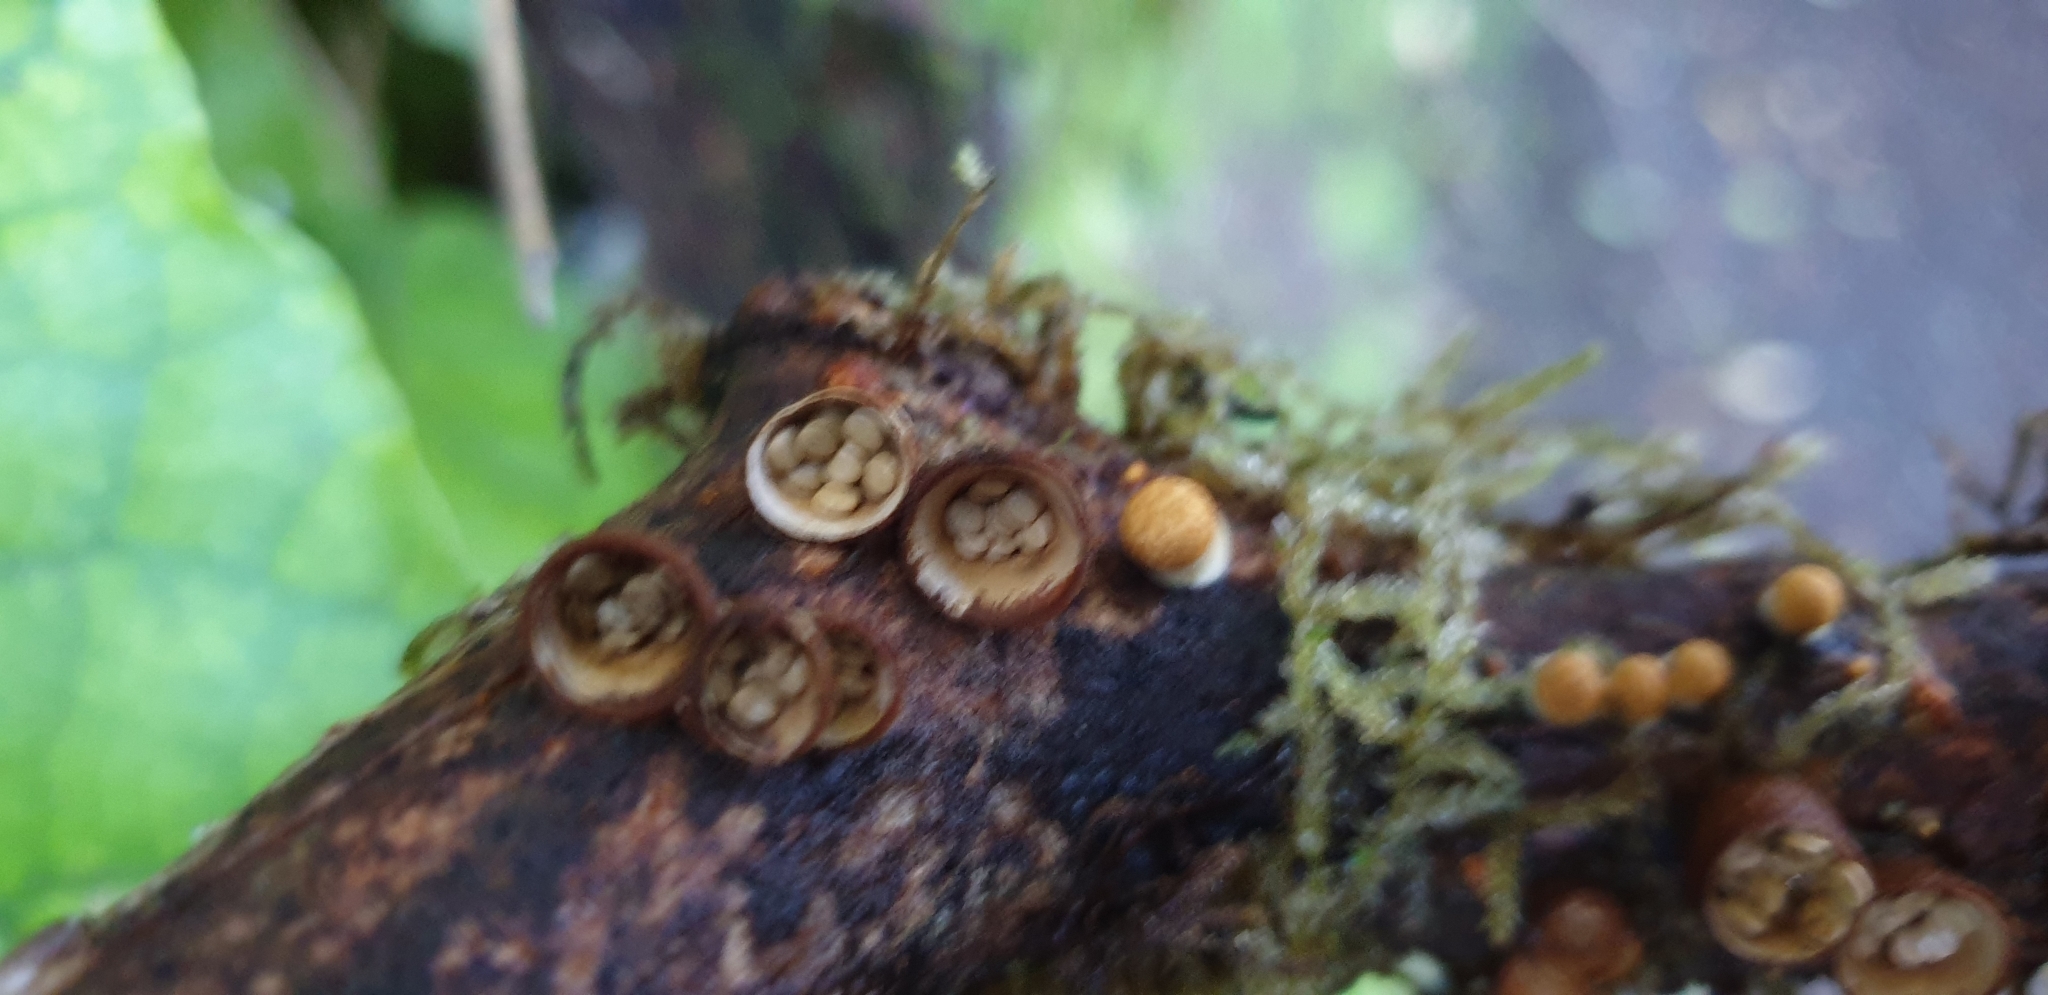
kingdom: Fungi
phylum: Basidiomycota
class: Agaricomycetes
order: Agaricales
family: Nidulariaceae
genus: Crucibulum
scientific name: Crucibulum simile
